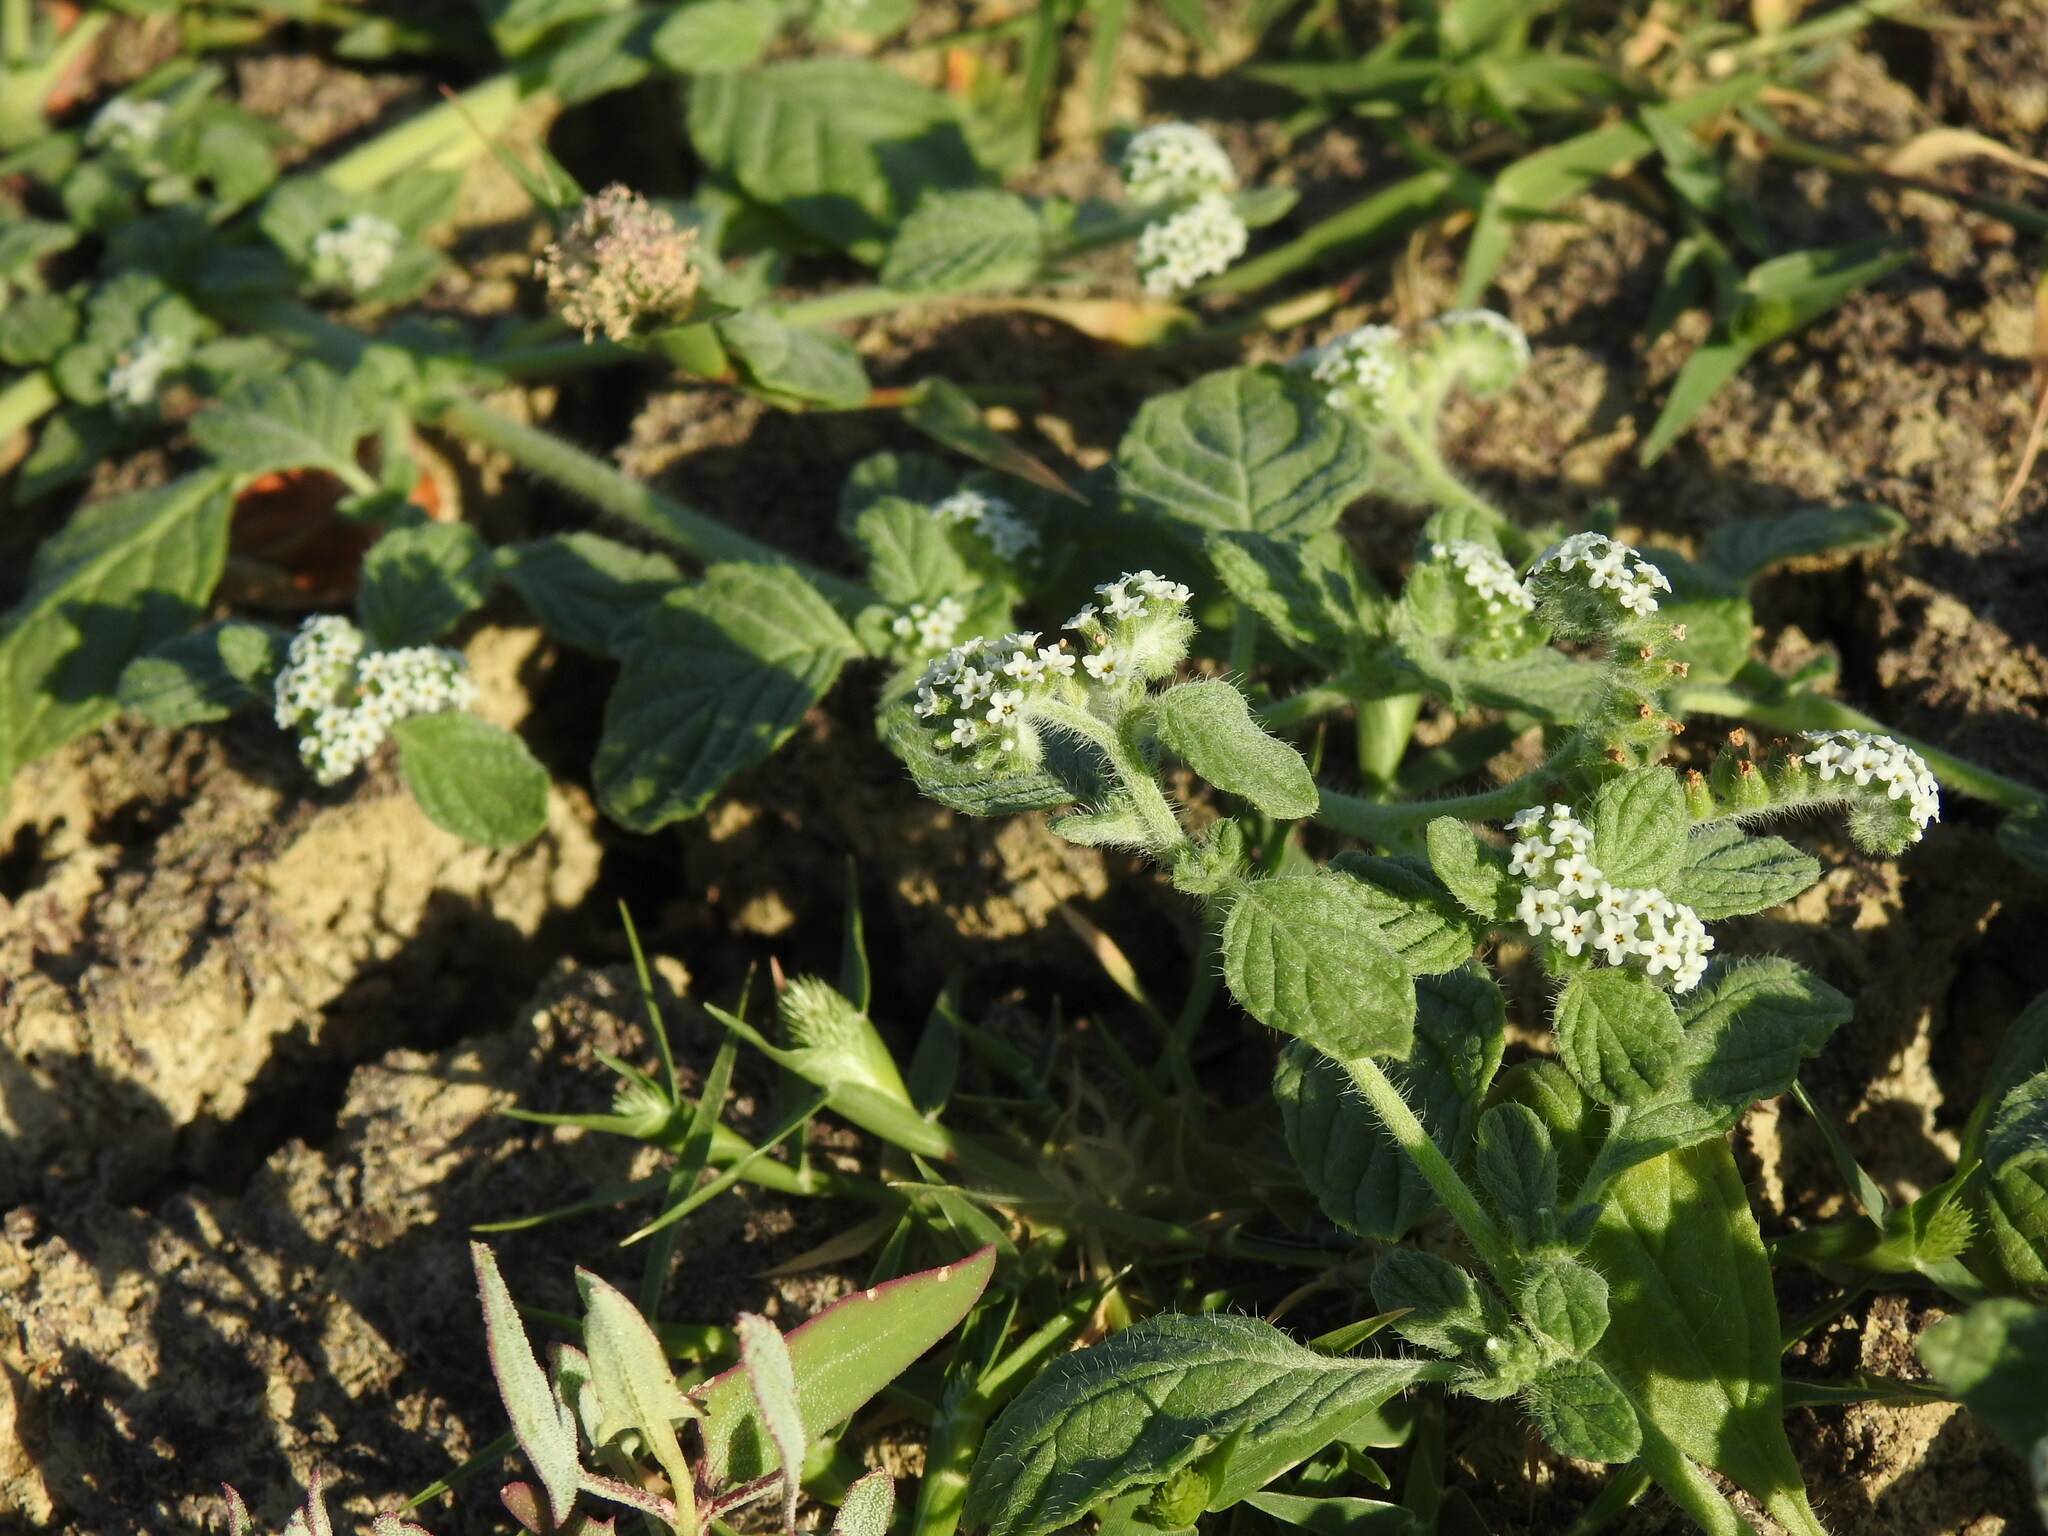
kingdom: Plantae
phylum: Tracheophyta
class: Magnoliopsida
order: Boraginales
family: Heliotropiaceae
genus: Heliotropium
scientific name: Heliotropium supinum
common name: Dwarf heliotrope
